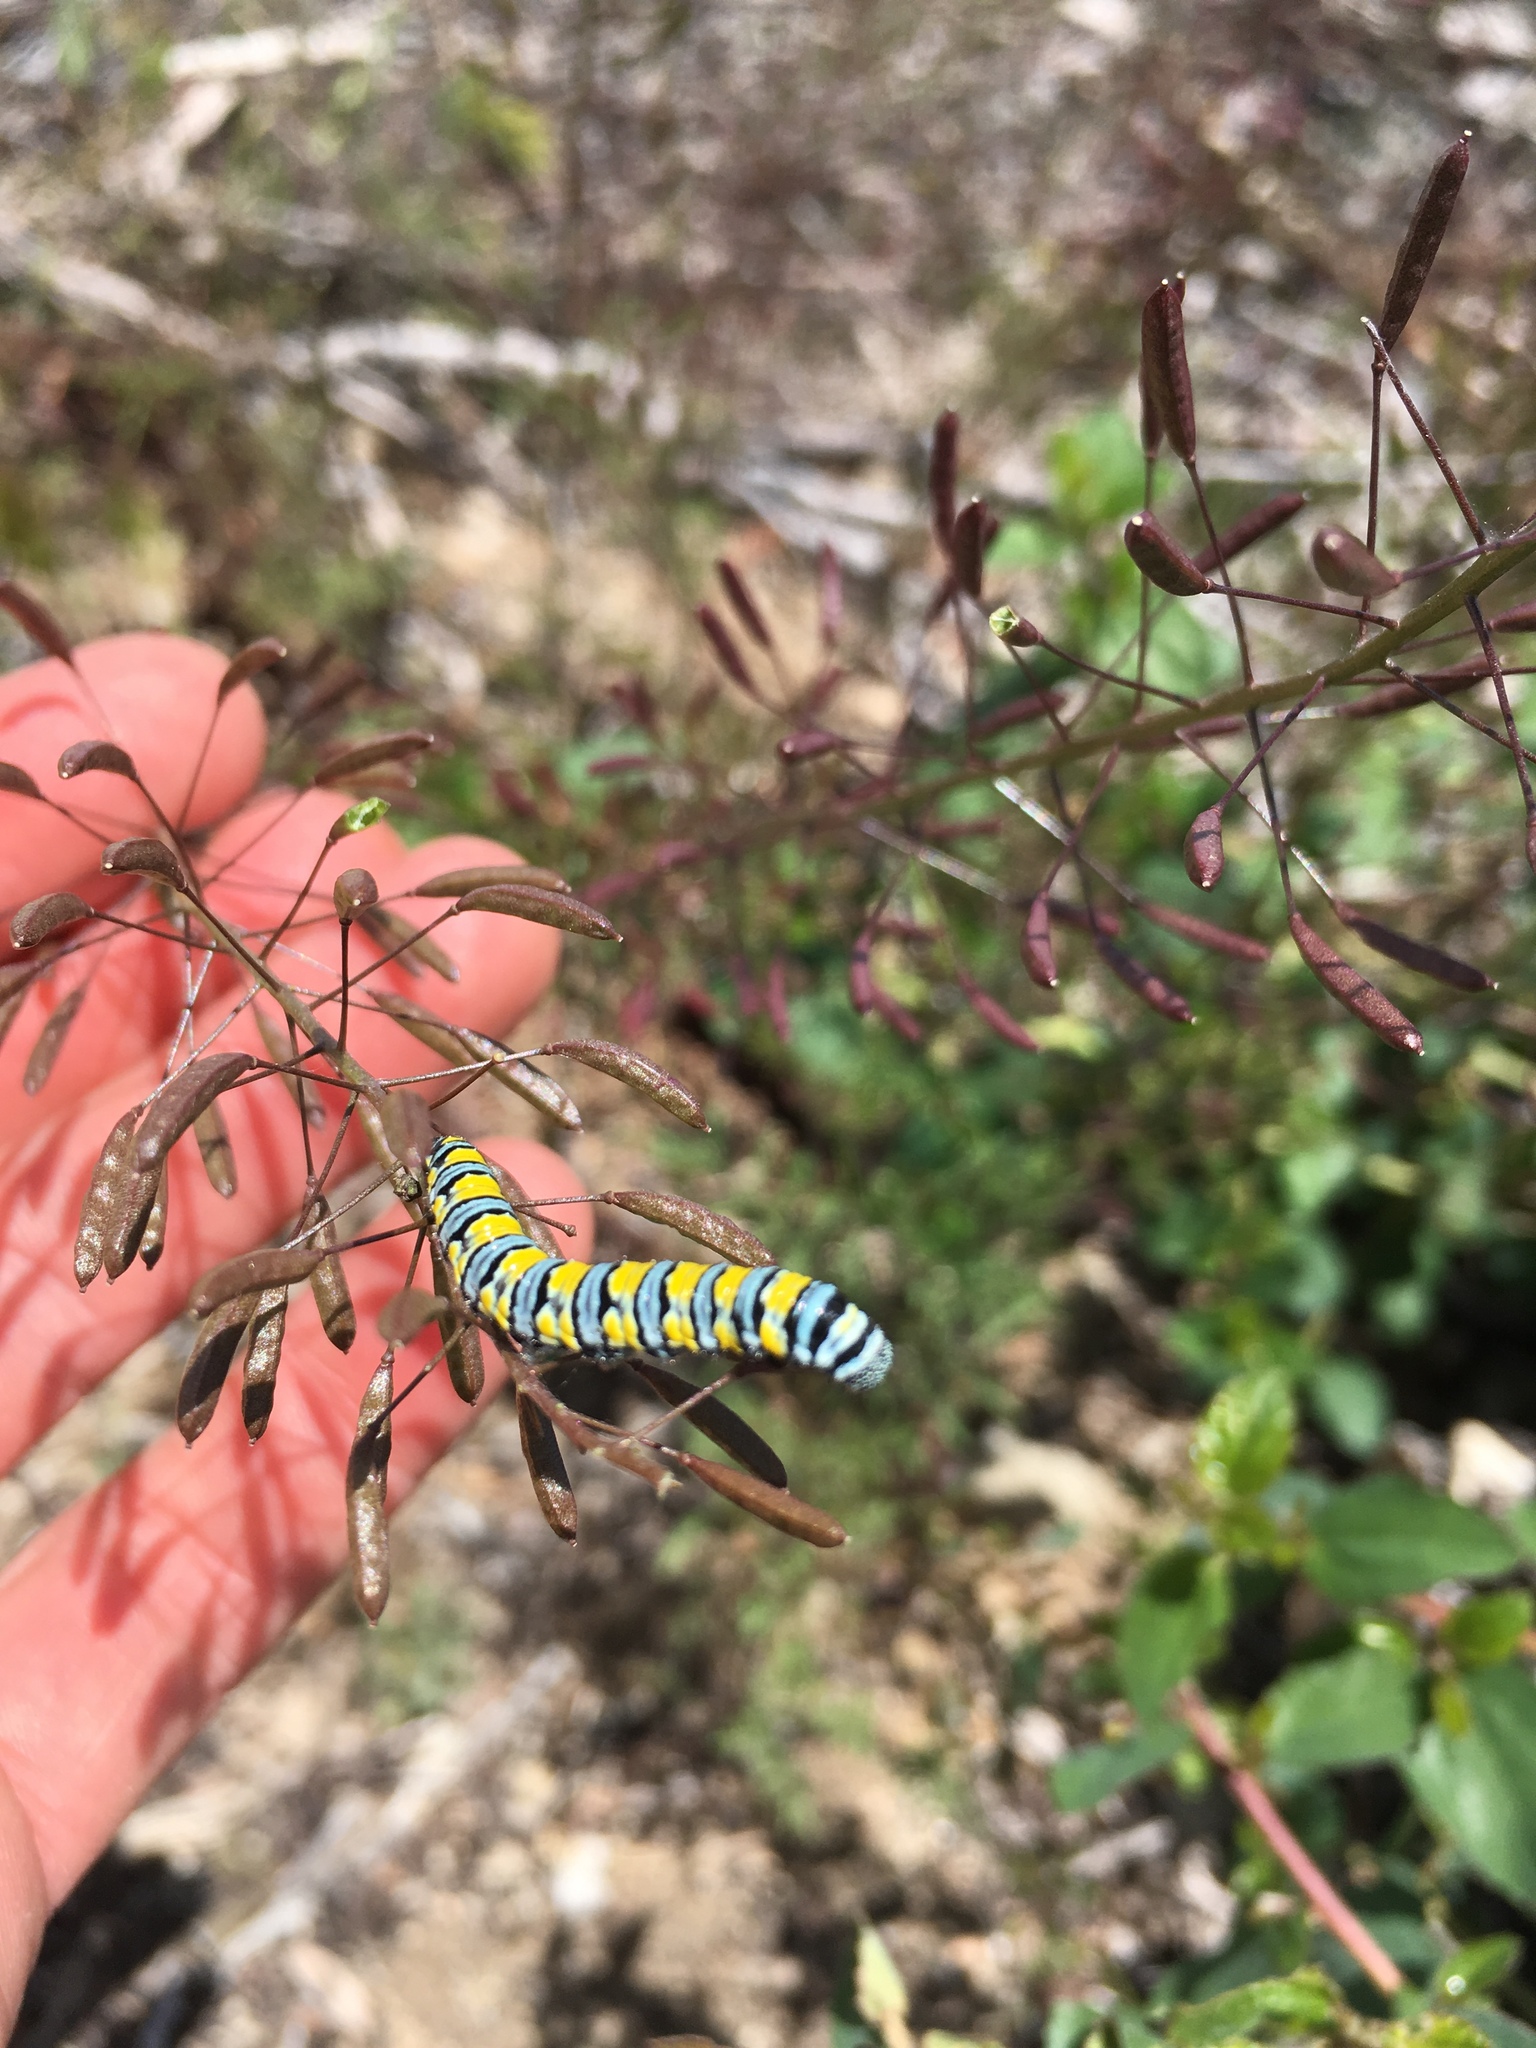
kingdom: Animalia
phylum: Arthropoda
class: Insecta
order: Lepidoptera
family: Pieridae
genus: Pontia
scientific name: Pontia sisymbrii
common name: California white
